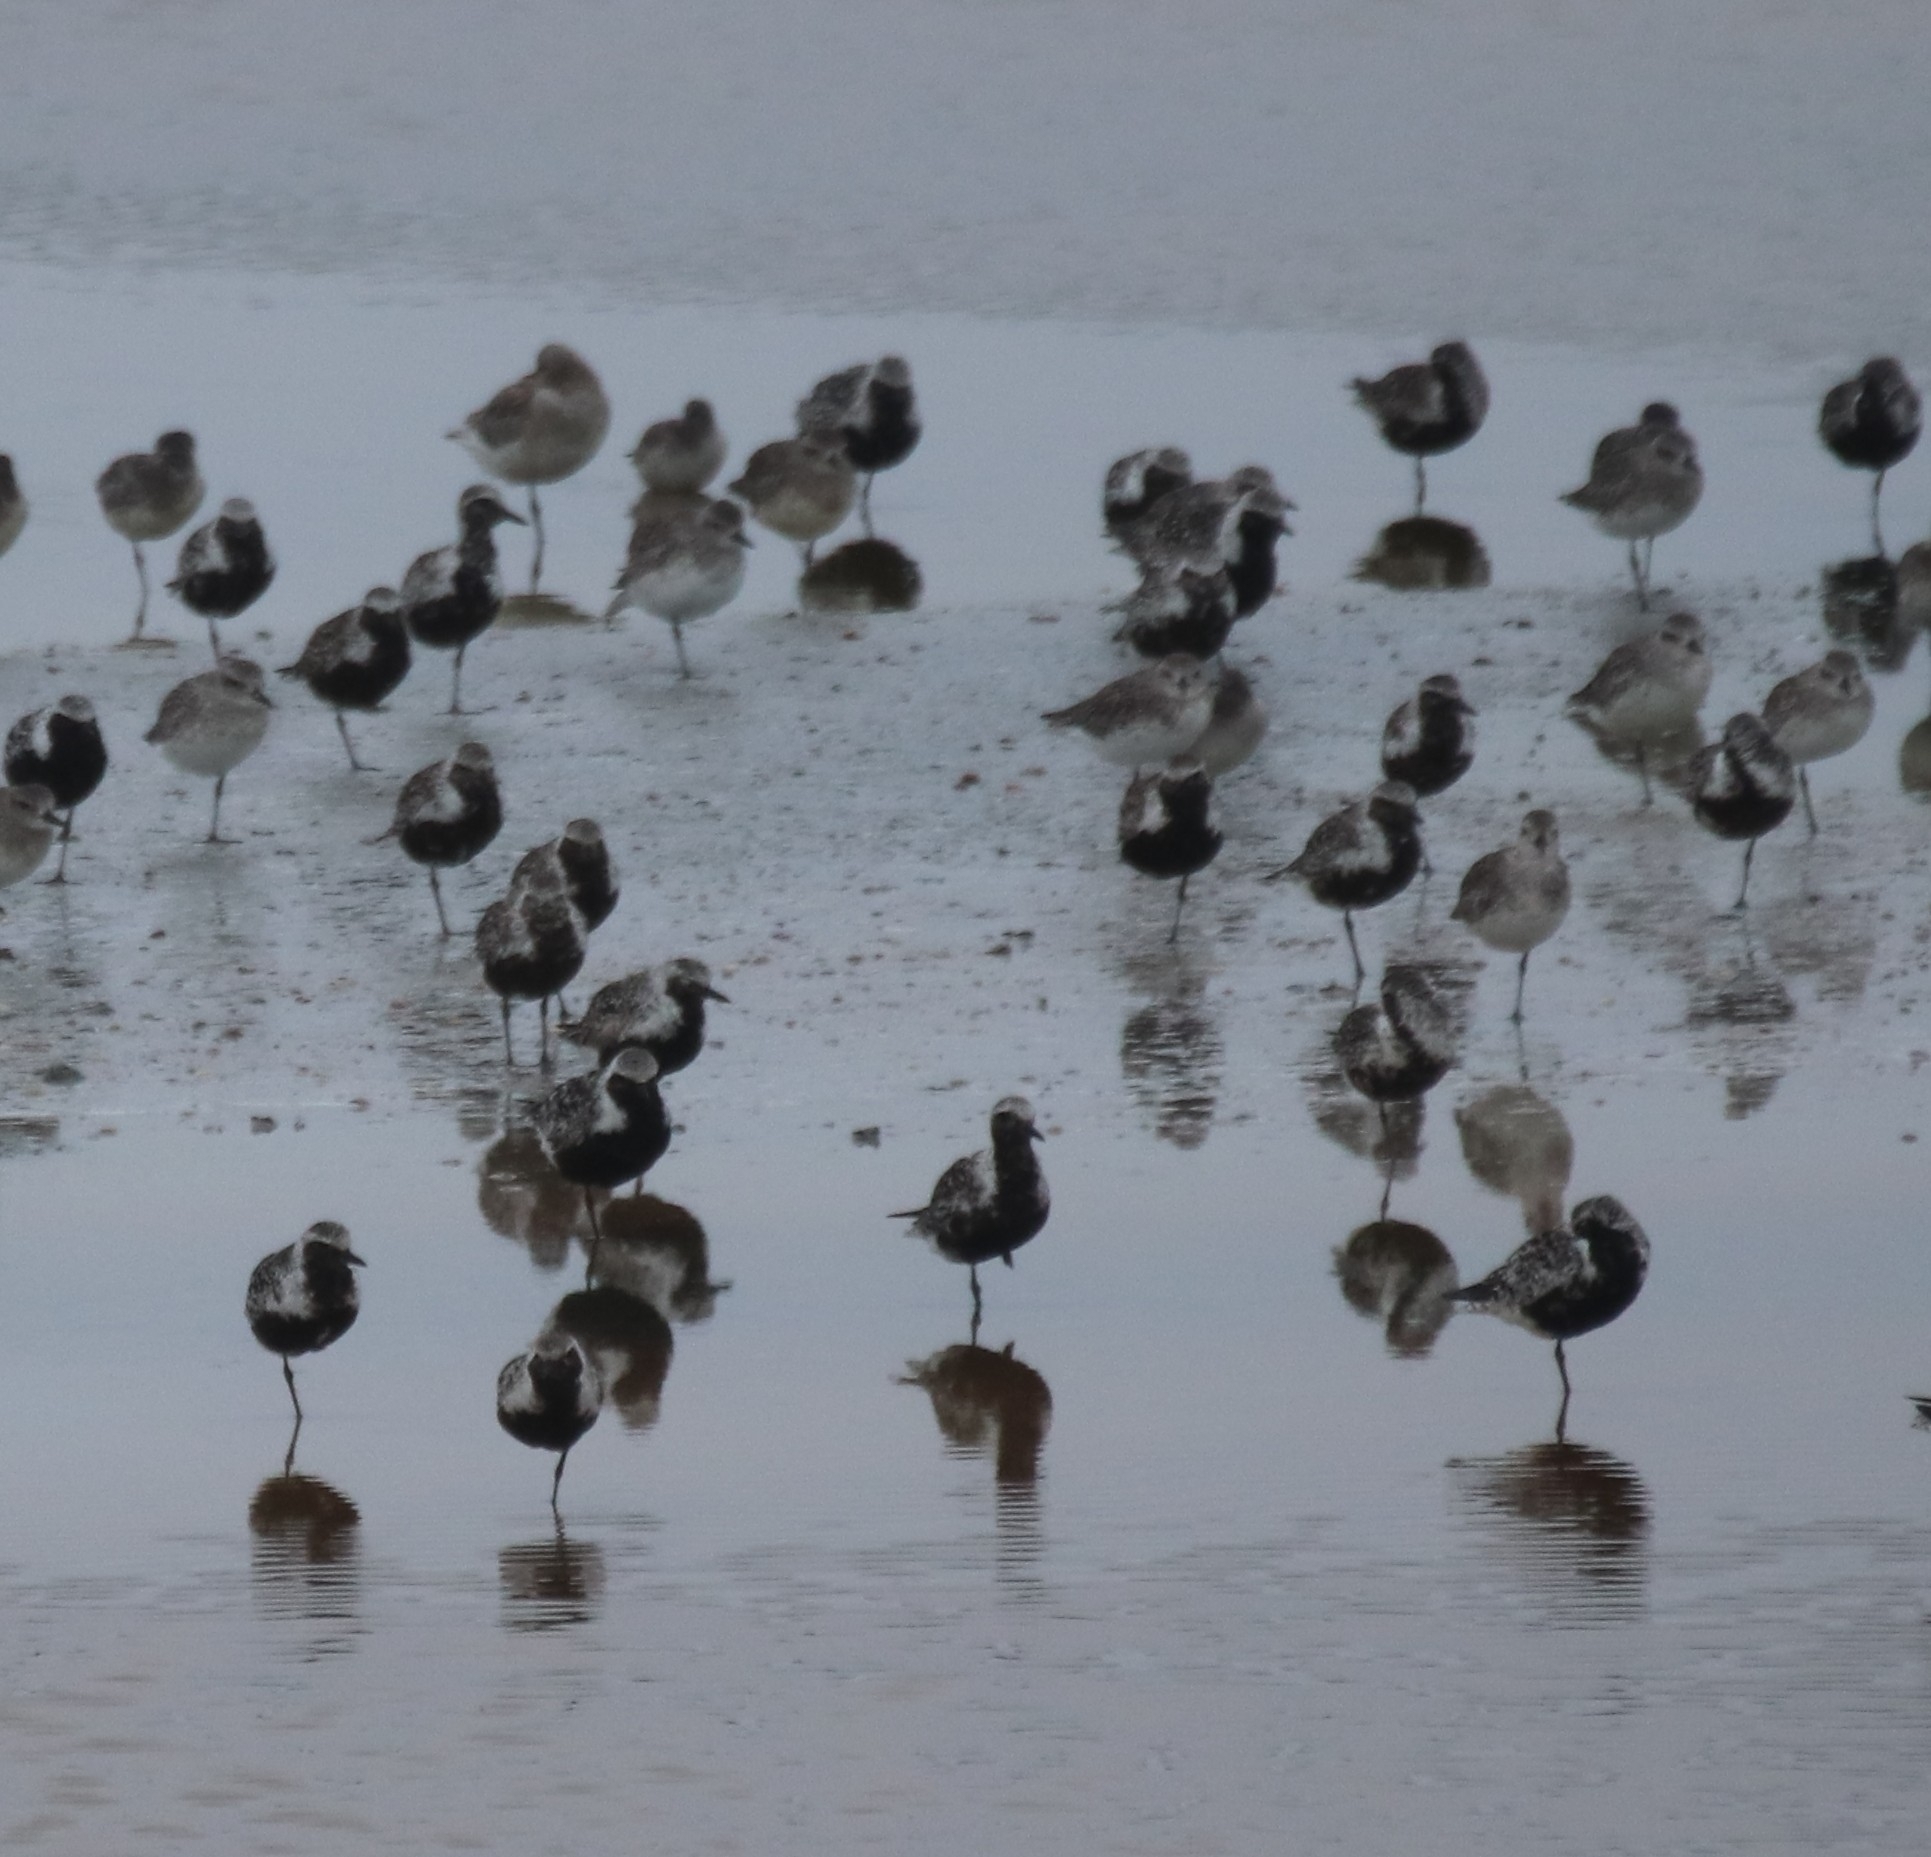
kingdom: Animalia
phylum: Chordata
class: Aves
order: Charadriiformes
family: Charadriidae
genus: Pluvialis
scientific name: Pluvialis squatarola
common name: Grey plover
